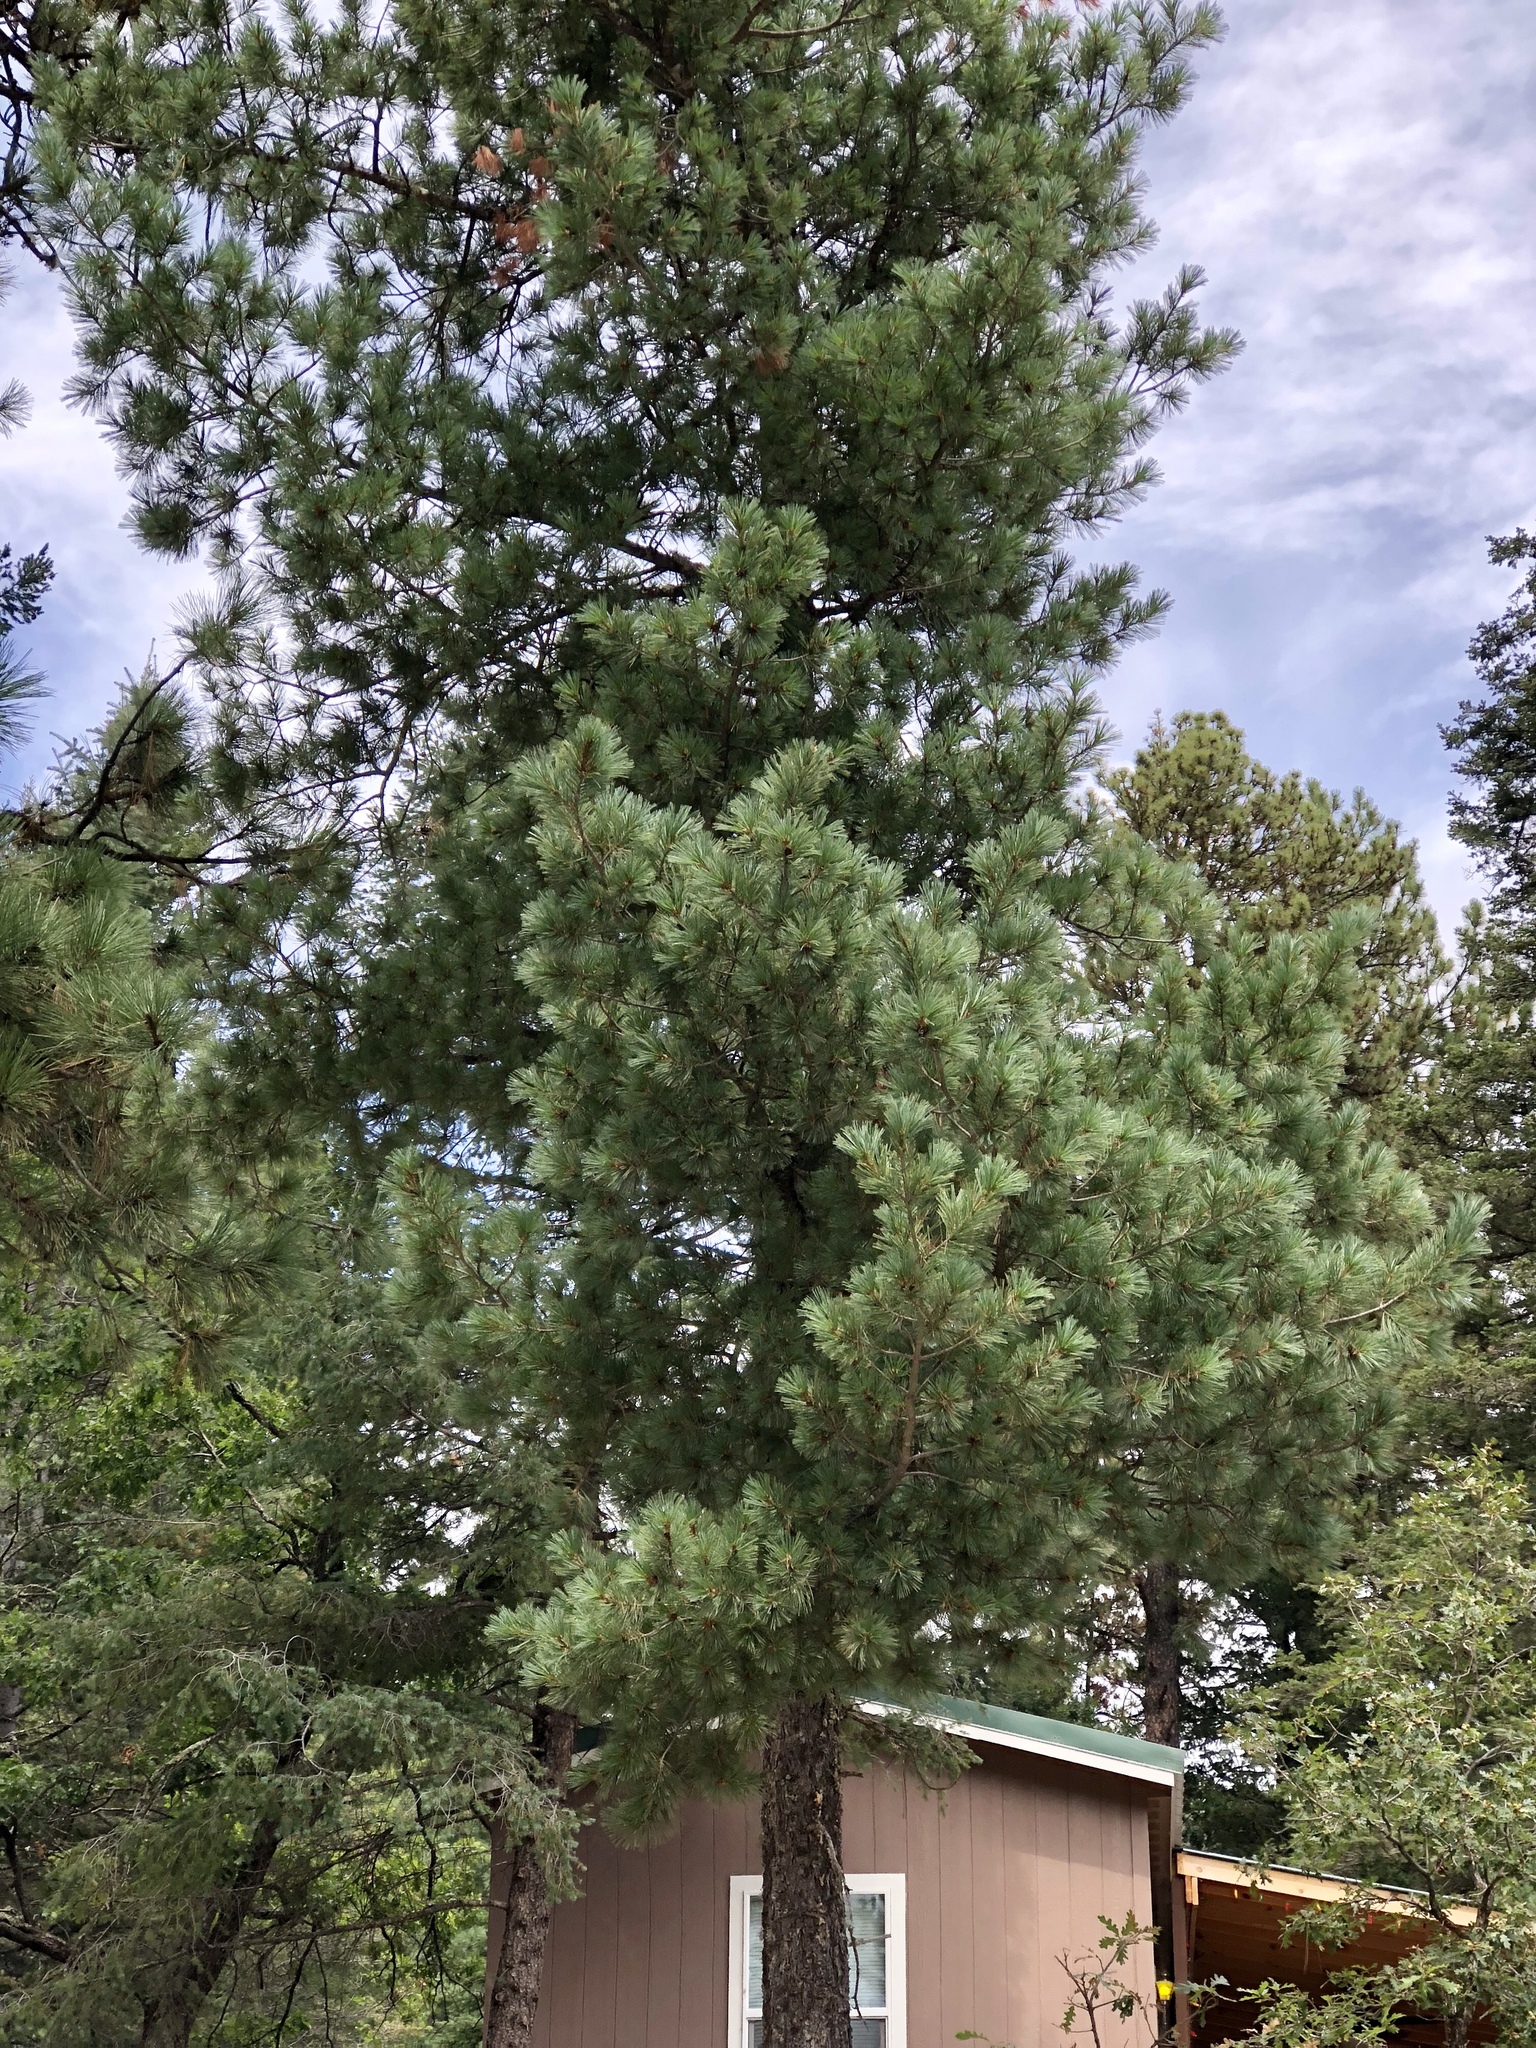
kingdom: Plantae
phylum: Tracheophyta
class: Pinopsida
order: Pinales
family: Pinaceae
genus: Pinus
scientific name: Pinus strobiformis
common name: Southwestern white pine
